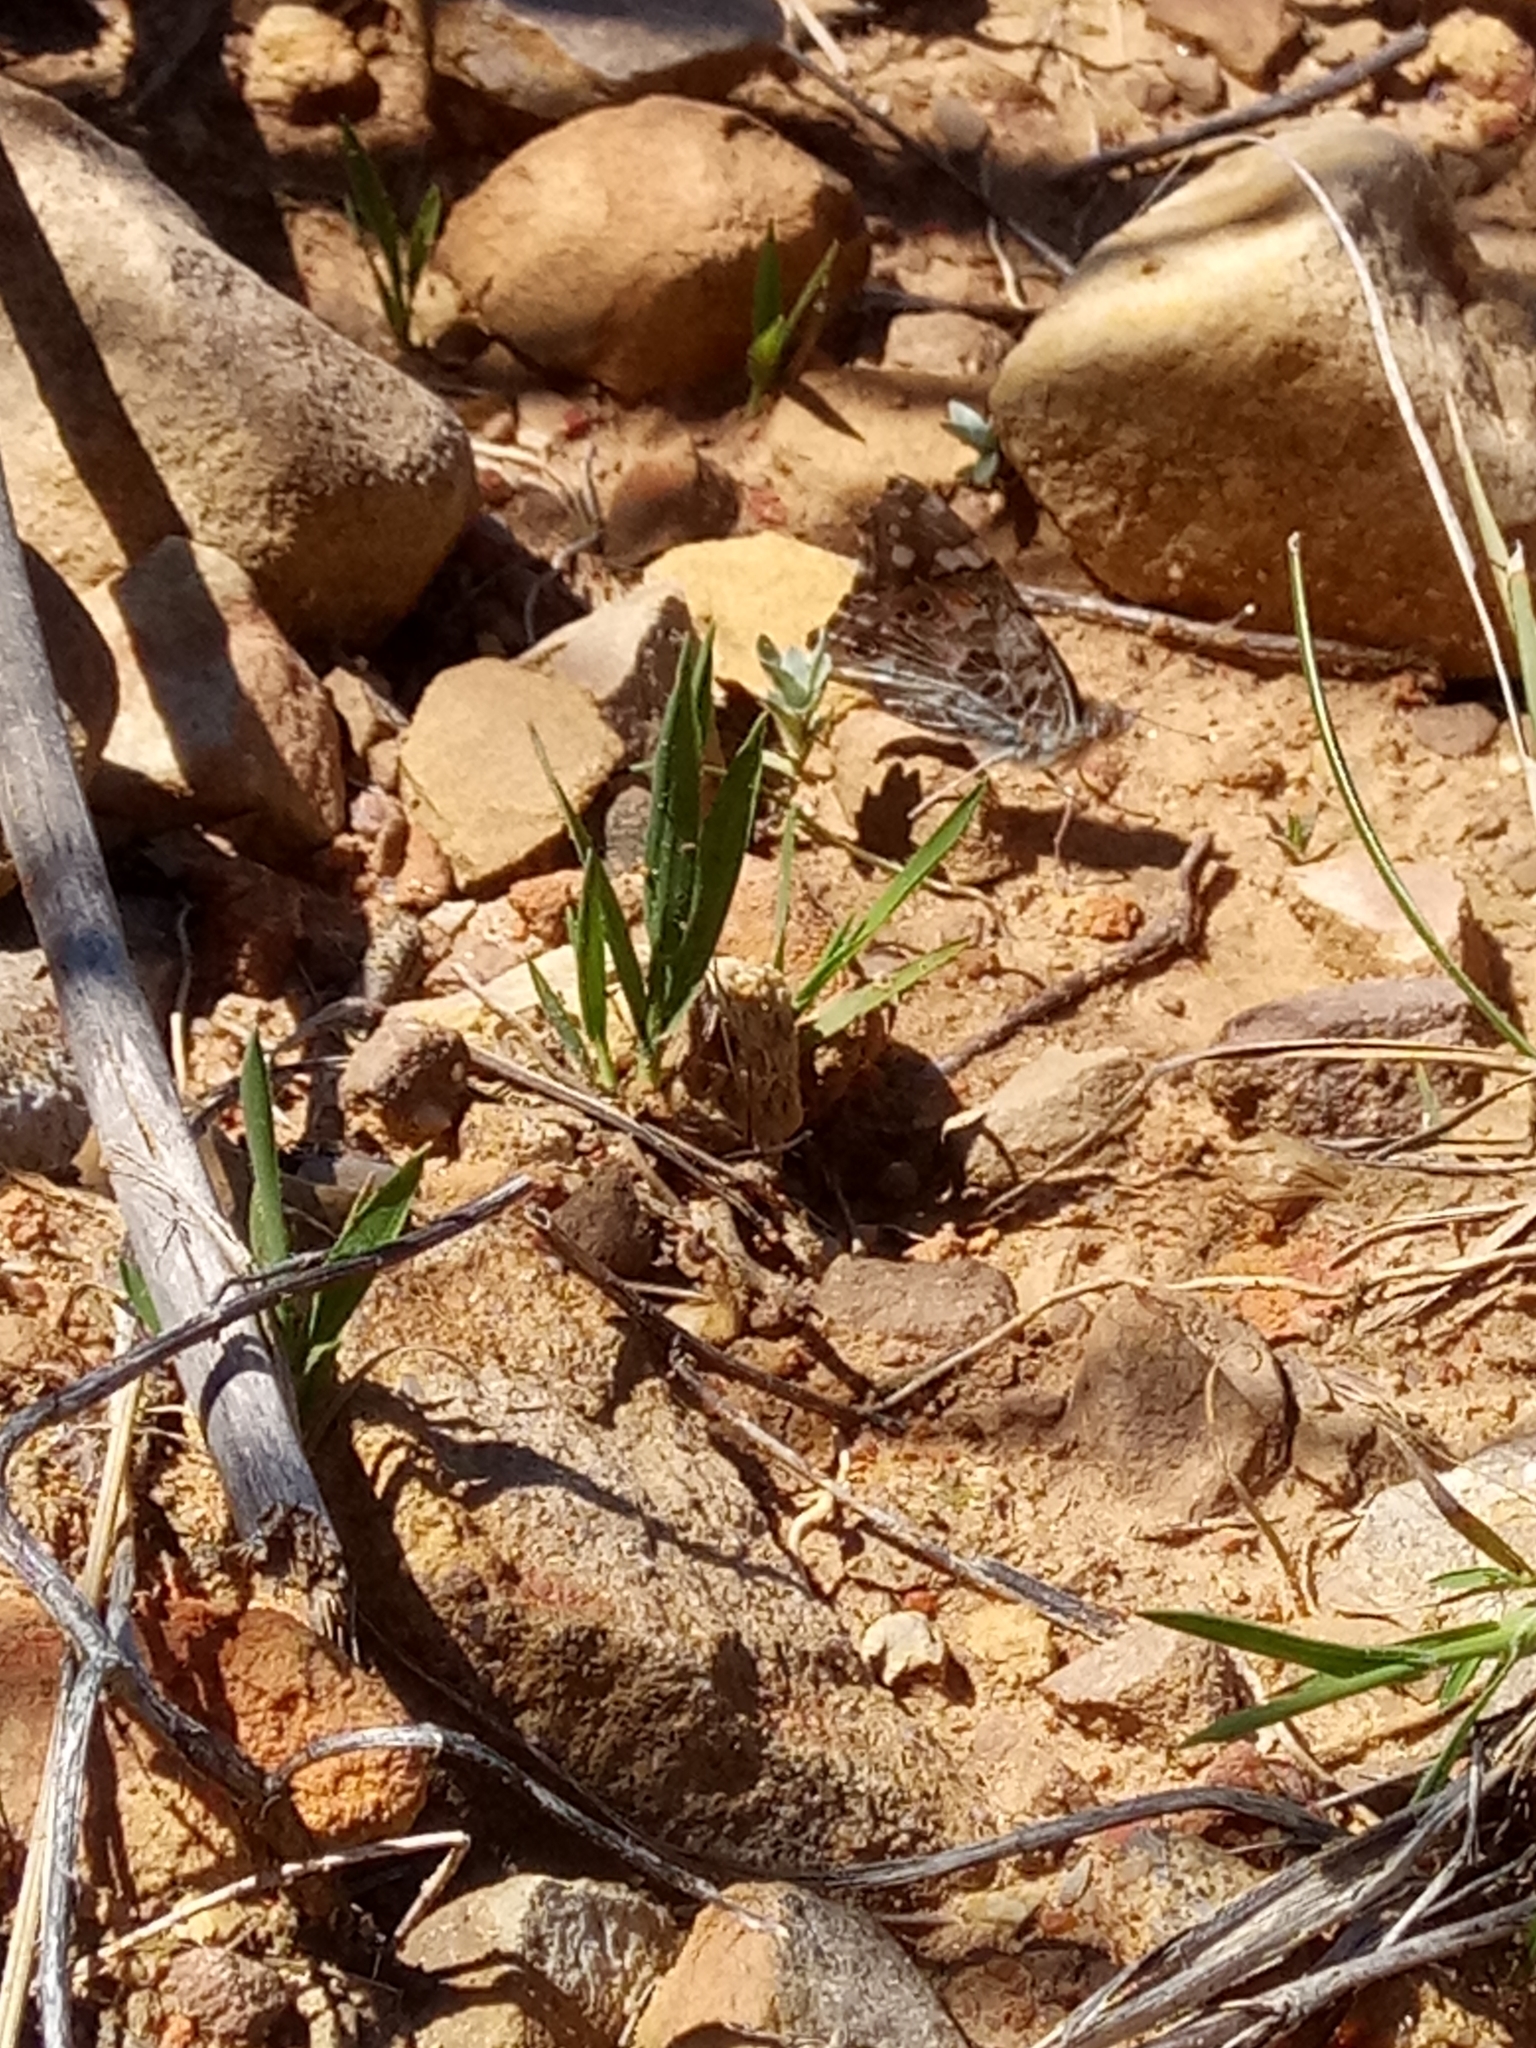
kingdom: Animalia
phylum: Arthropoda
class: Insecta
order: Lepidoptera
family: Nymphalidae
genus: Vanessa
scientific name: Vanessa cardui
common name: Painted lady
